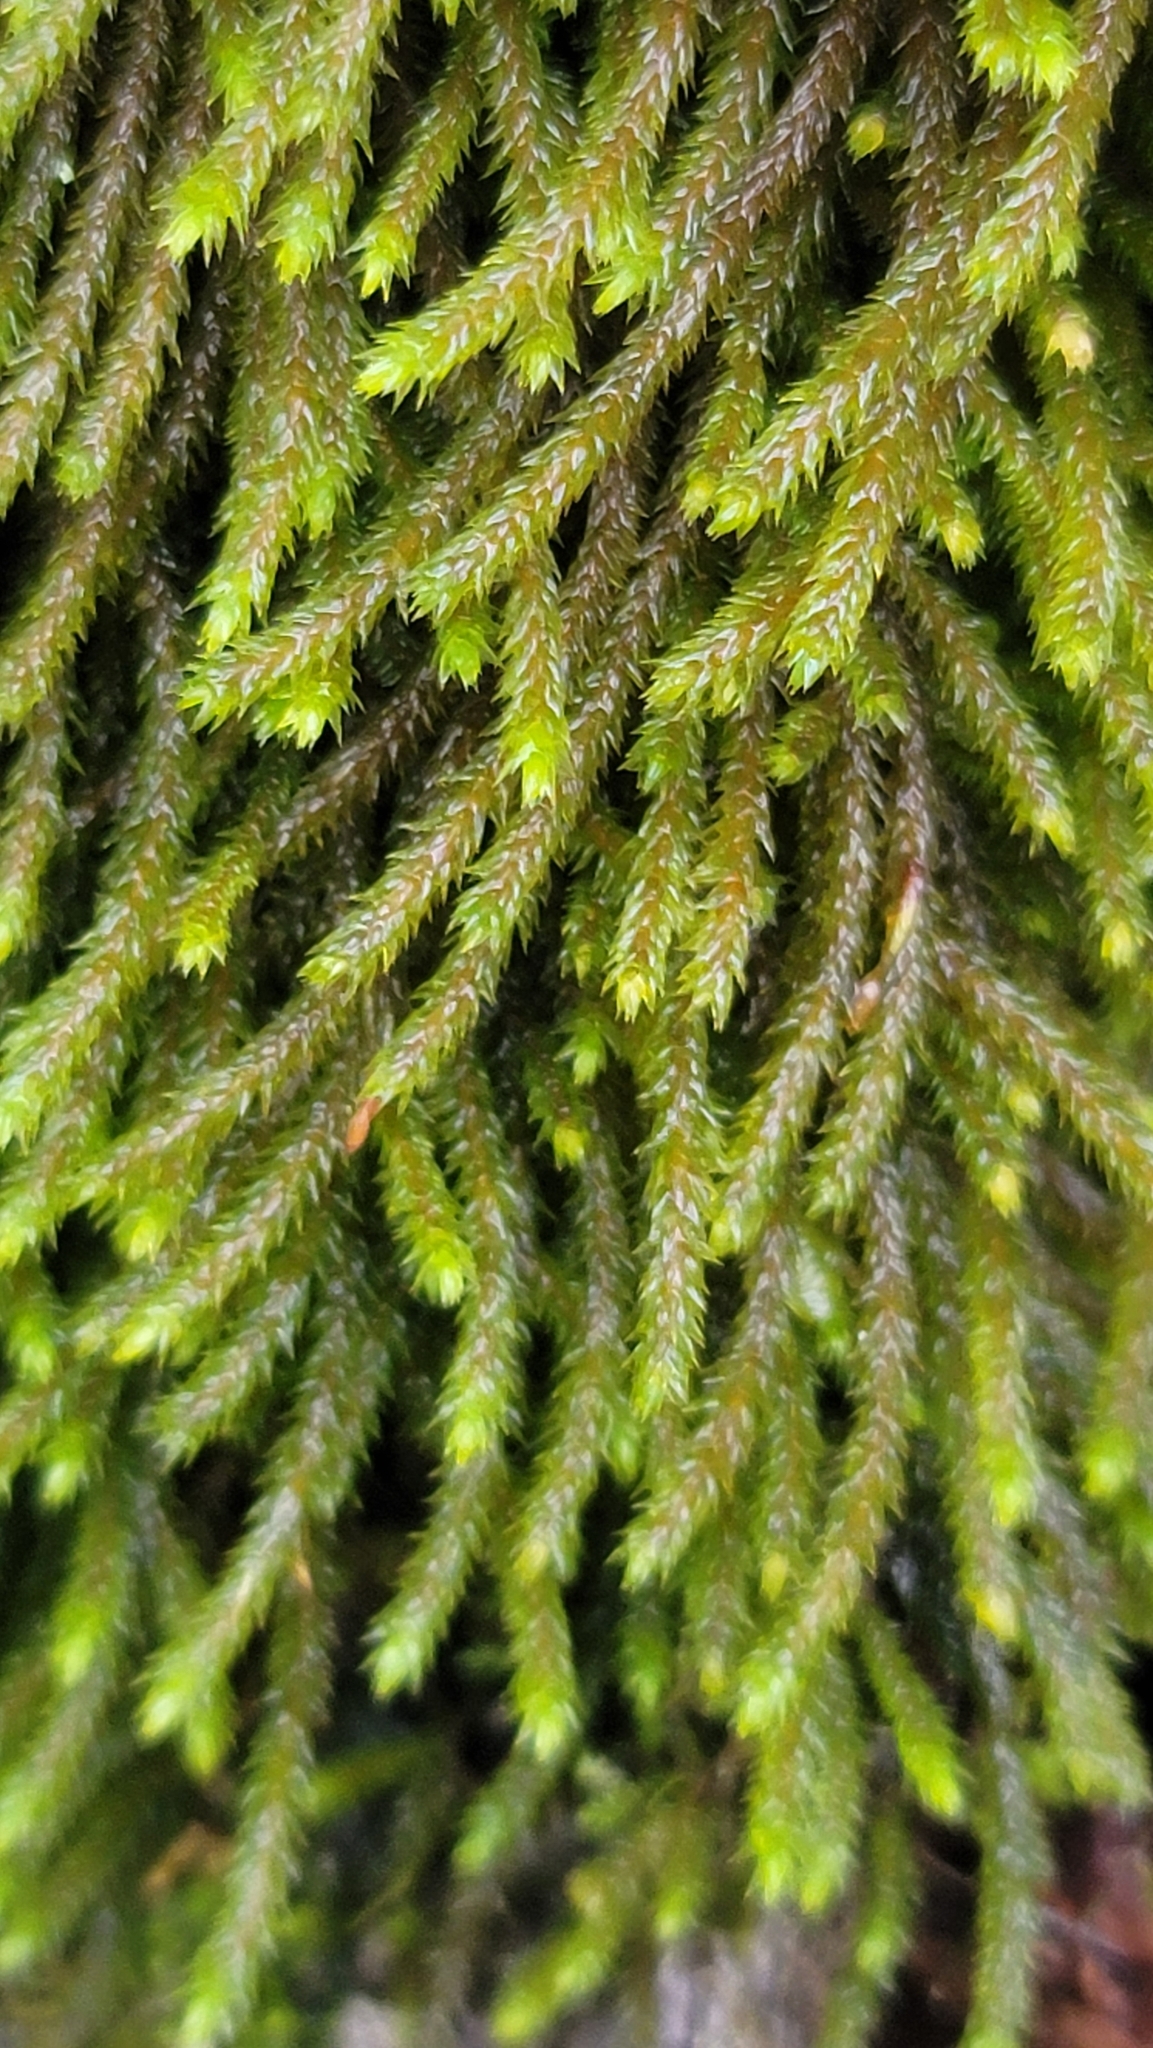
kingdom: Plantae
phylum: Bryophyta
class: Bryopsida
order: Hypnales
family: Leucodontaceae
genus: Leucodon
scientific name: Leucodon julaceus
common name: Smooth hook moss
